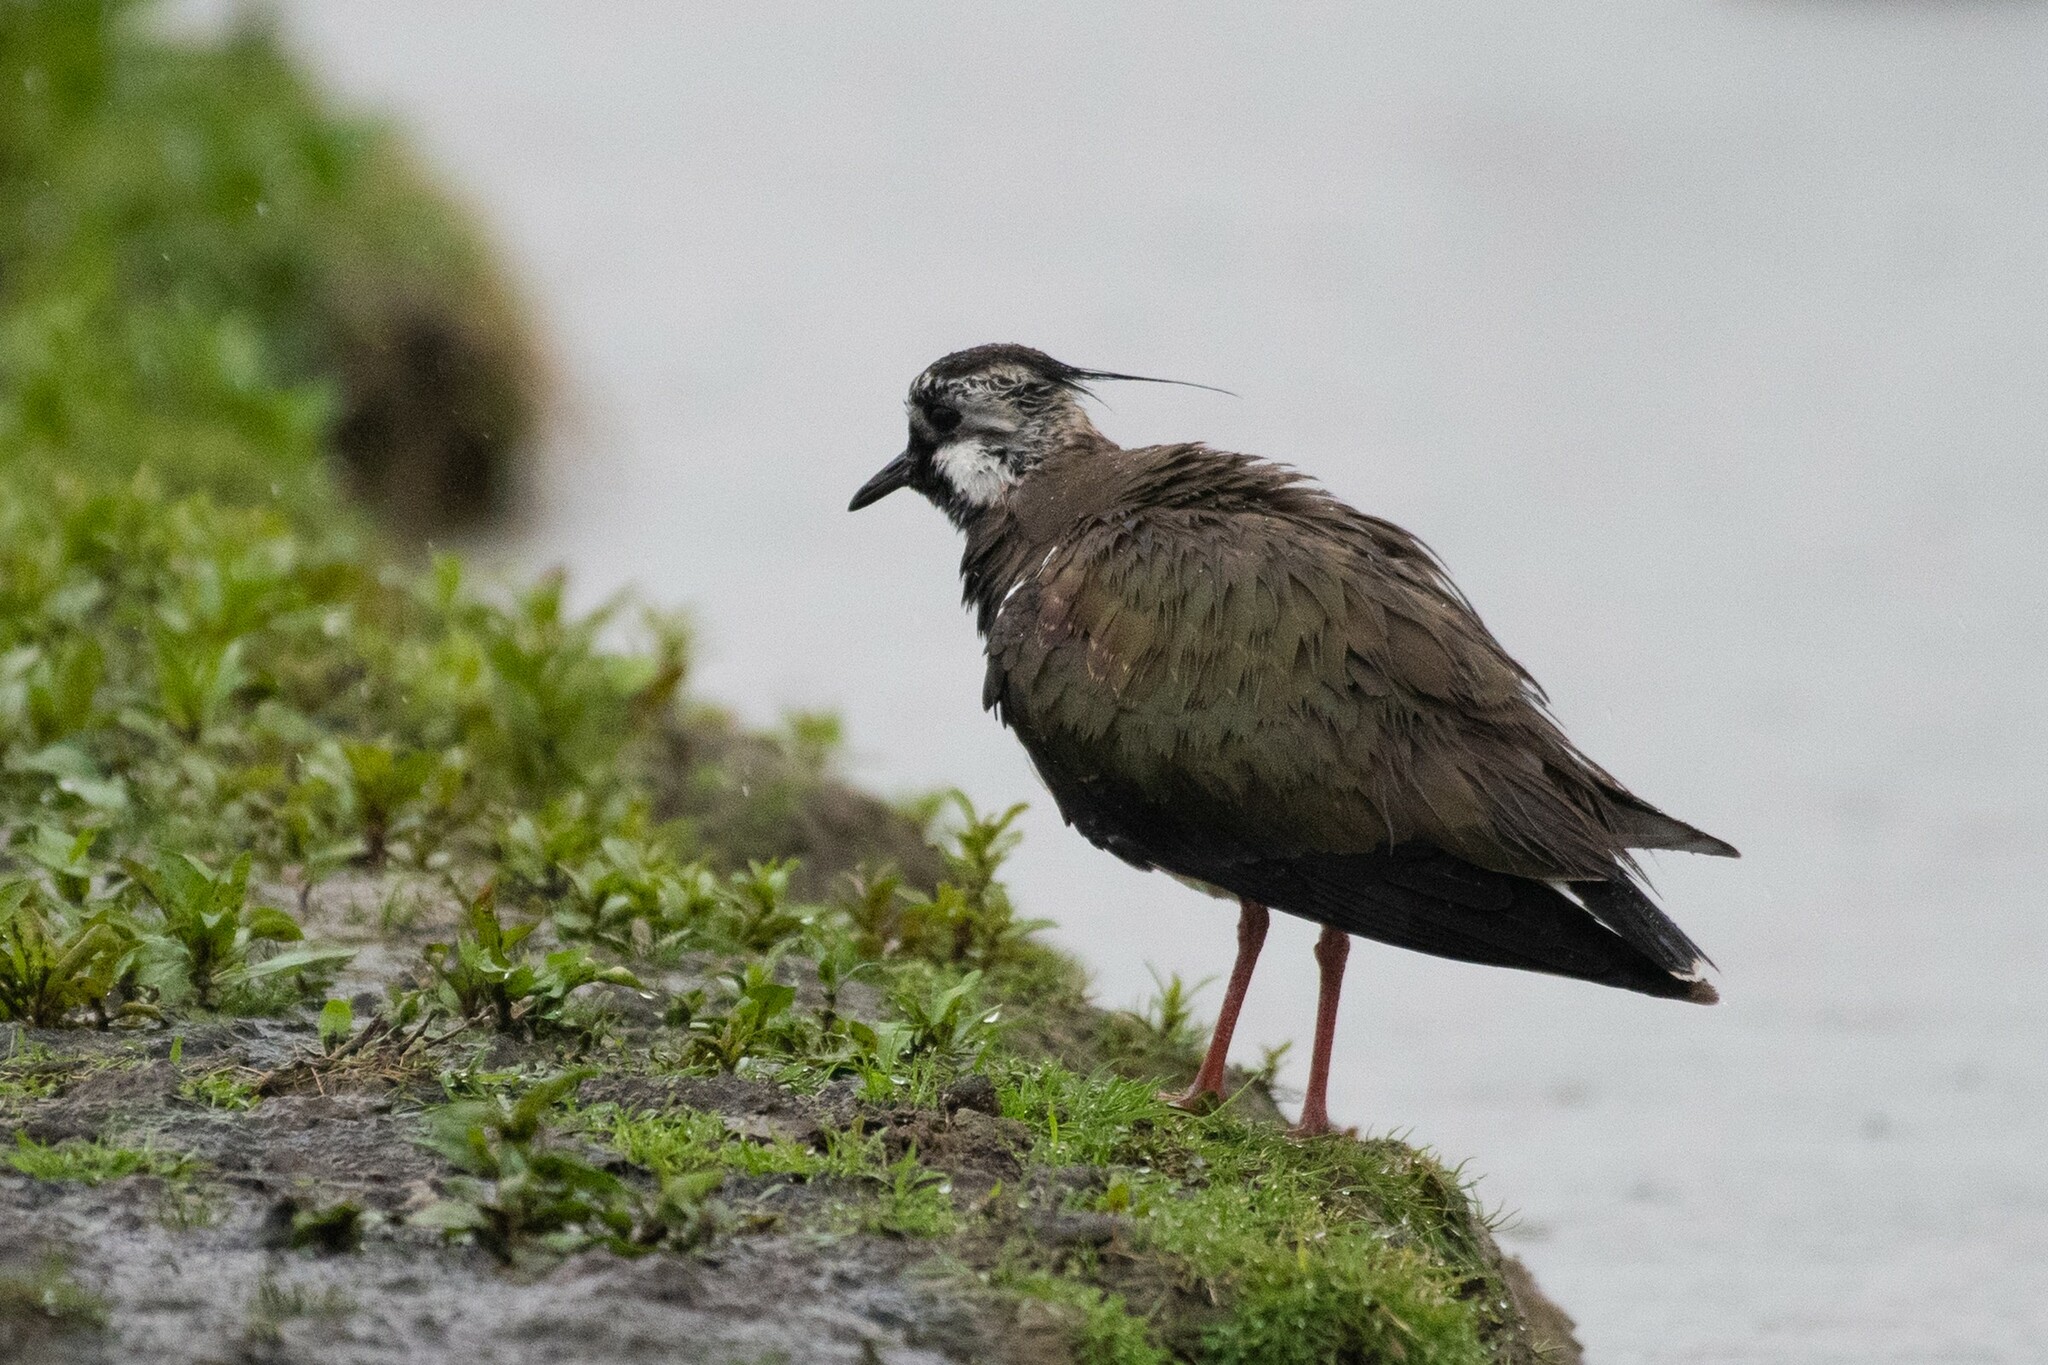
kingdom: Animalia
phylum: Chordata
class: Aves
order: Charadriiformes
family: Charadriidae
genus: Vanellus
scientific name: Vanellus vanellus
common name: Northern lapwing
